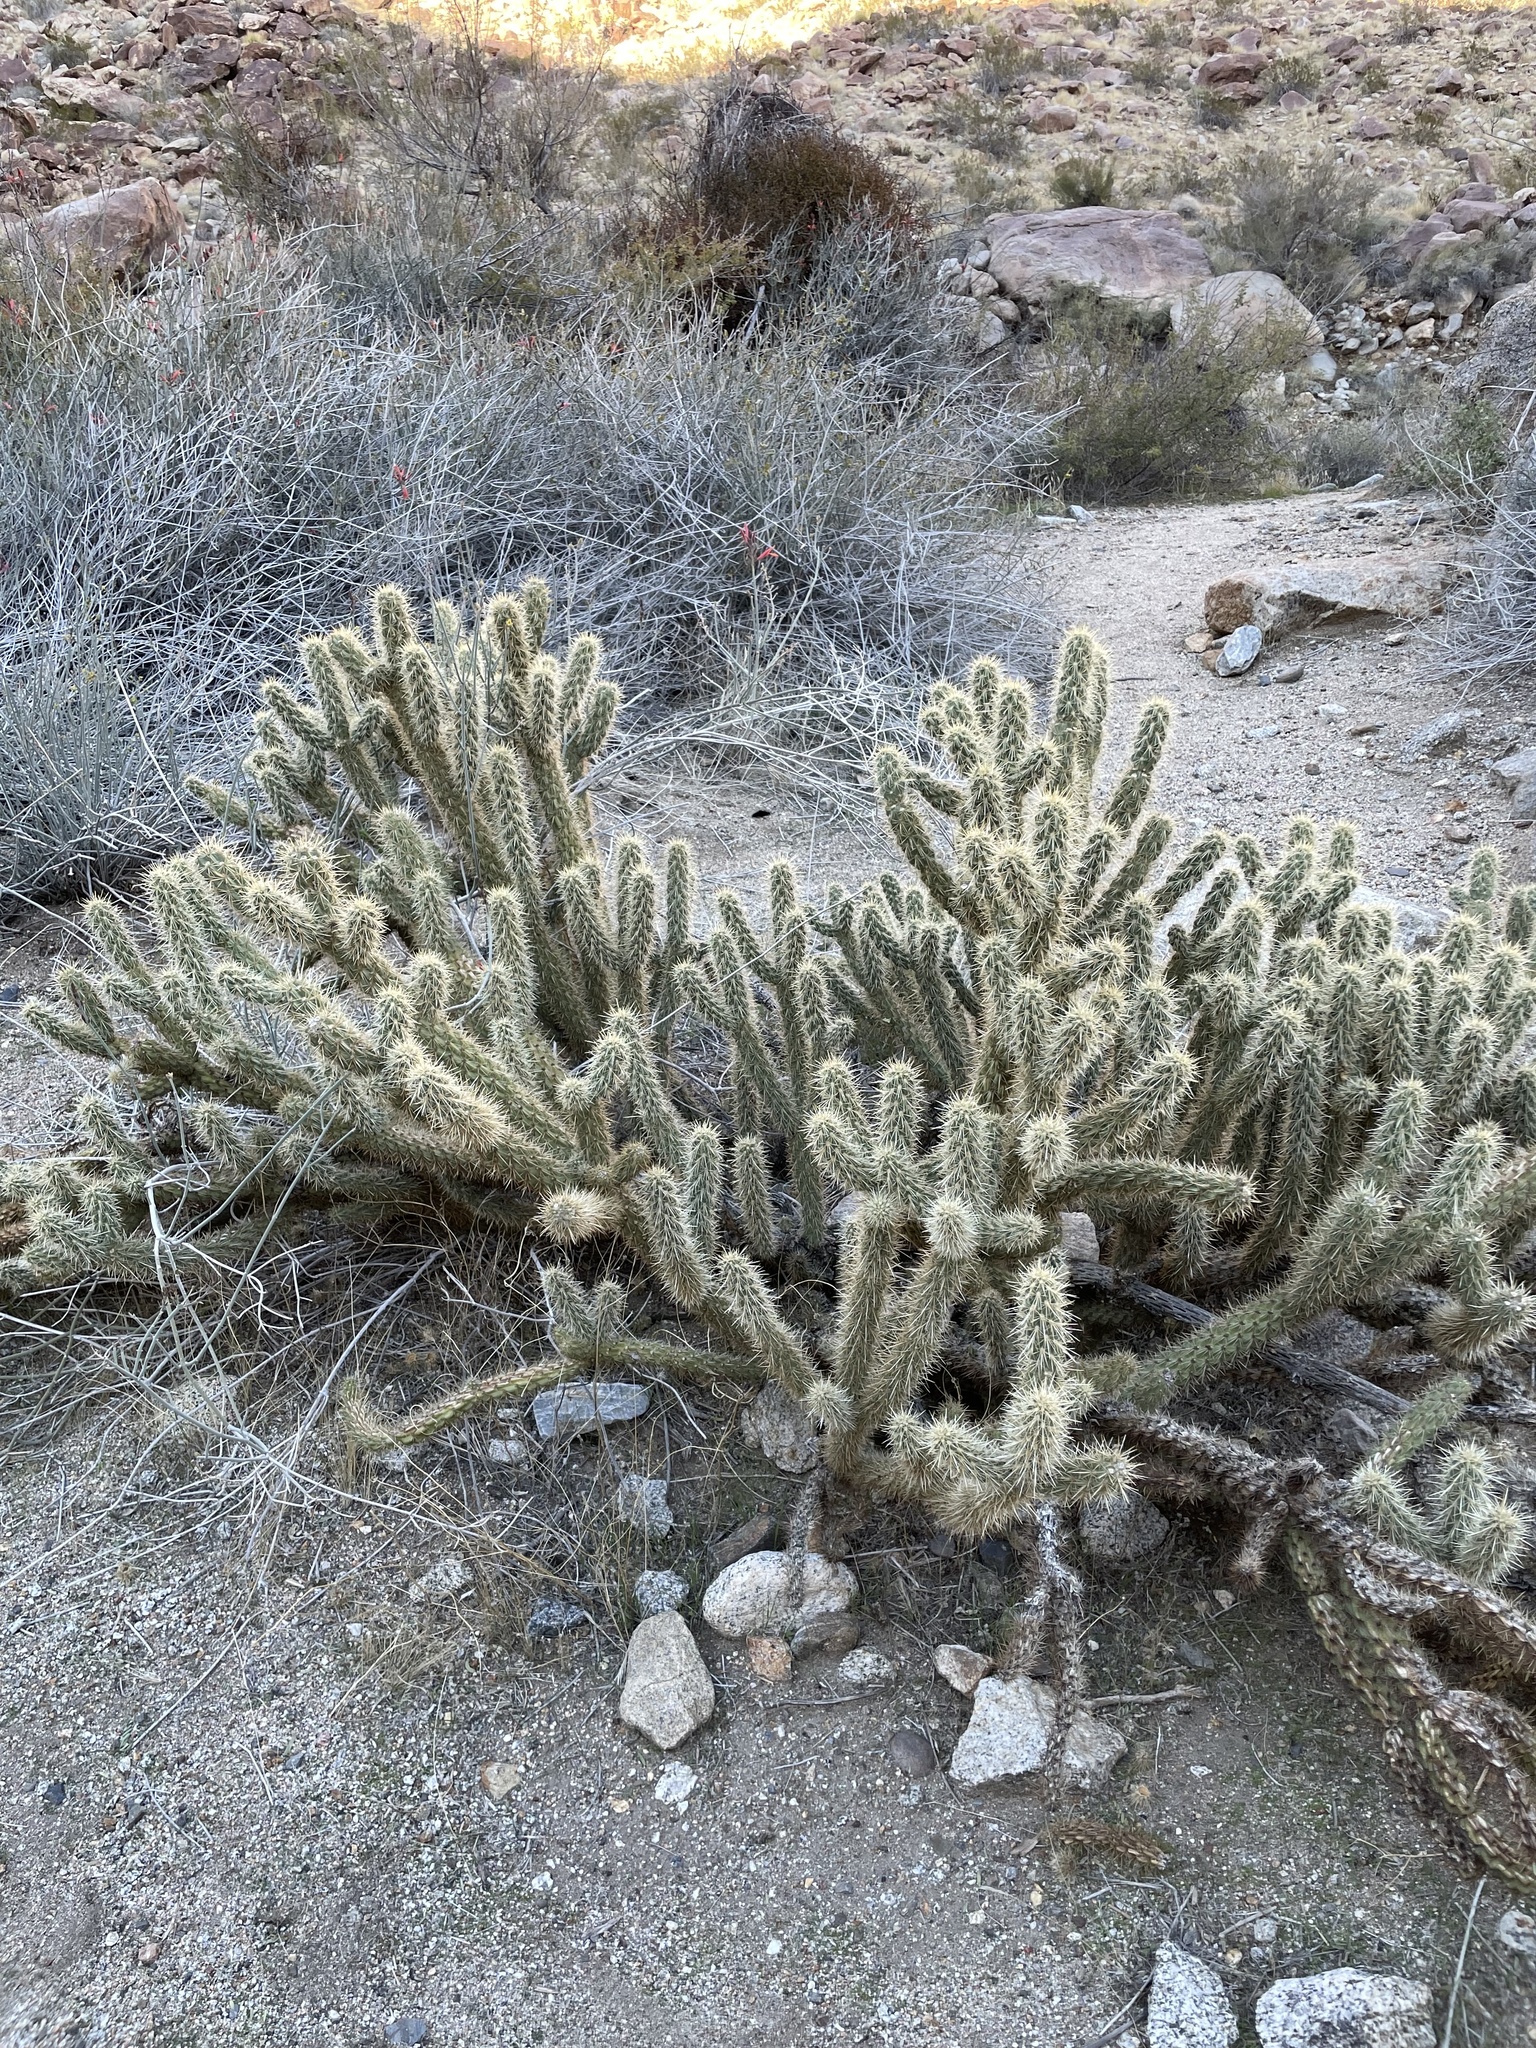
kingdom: Plantae
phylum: Tracheophyta
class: Magnoliopsida
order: Caryophyllales
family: Cactaceae
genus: Cylindropuntia
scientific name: Cylindropuntia ganderi
